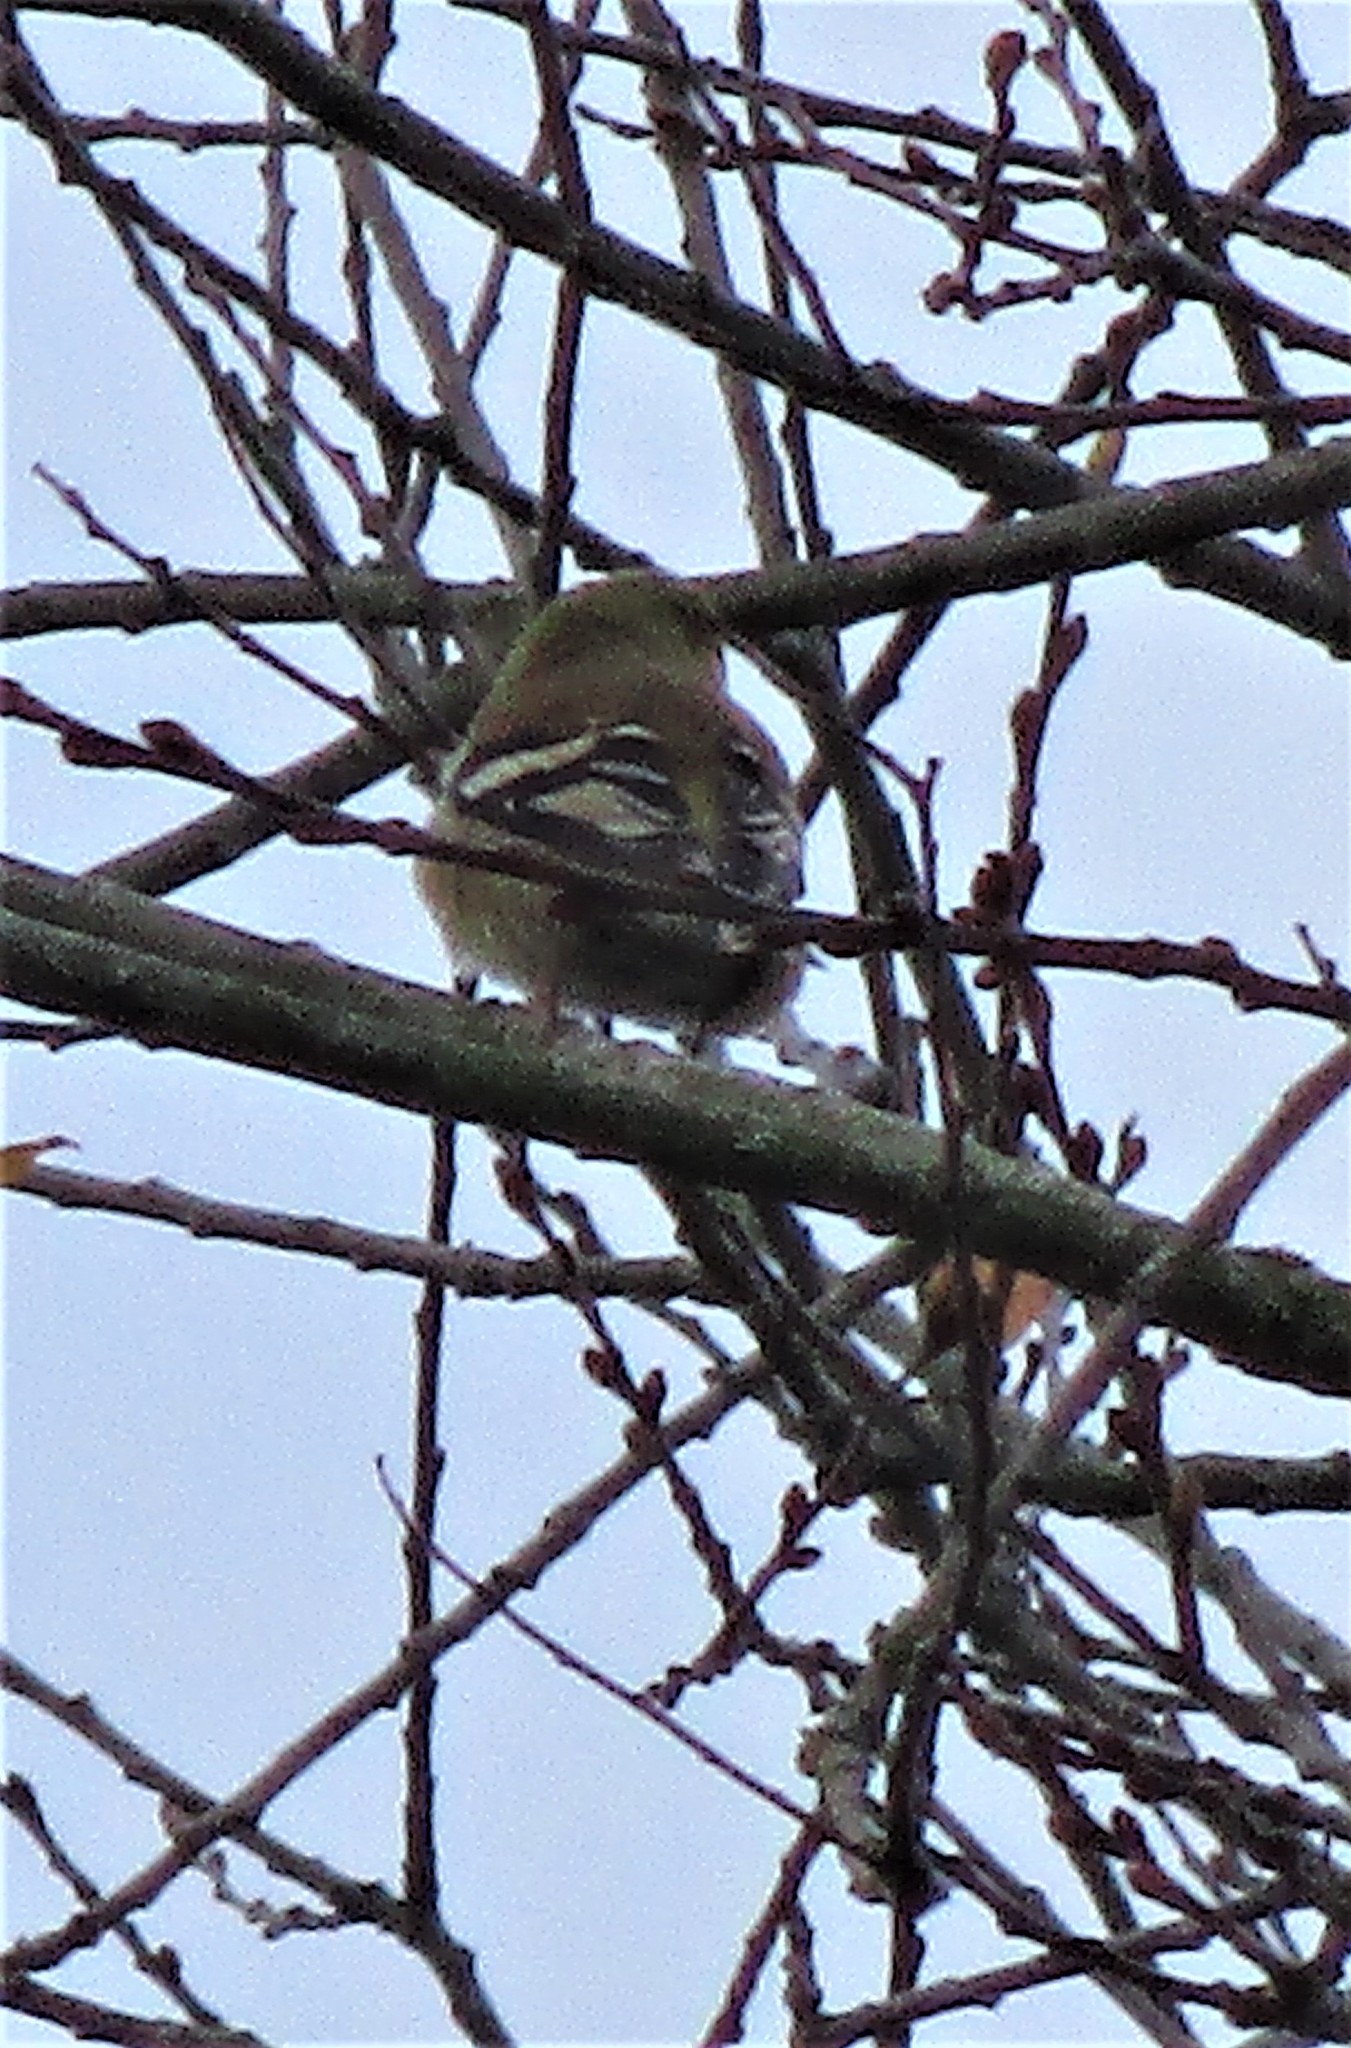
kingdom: Animalia
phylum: Chordata
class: Aves
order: Passeriformes
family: Fringillidae
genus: Spinus
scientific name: Spinus tristis
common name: American goldfinch
